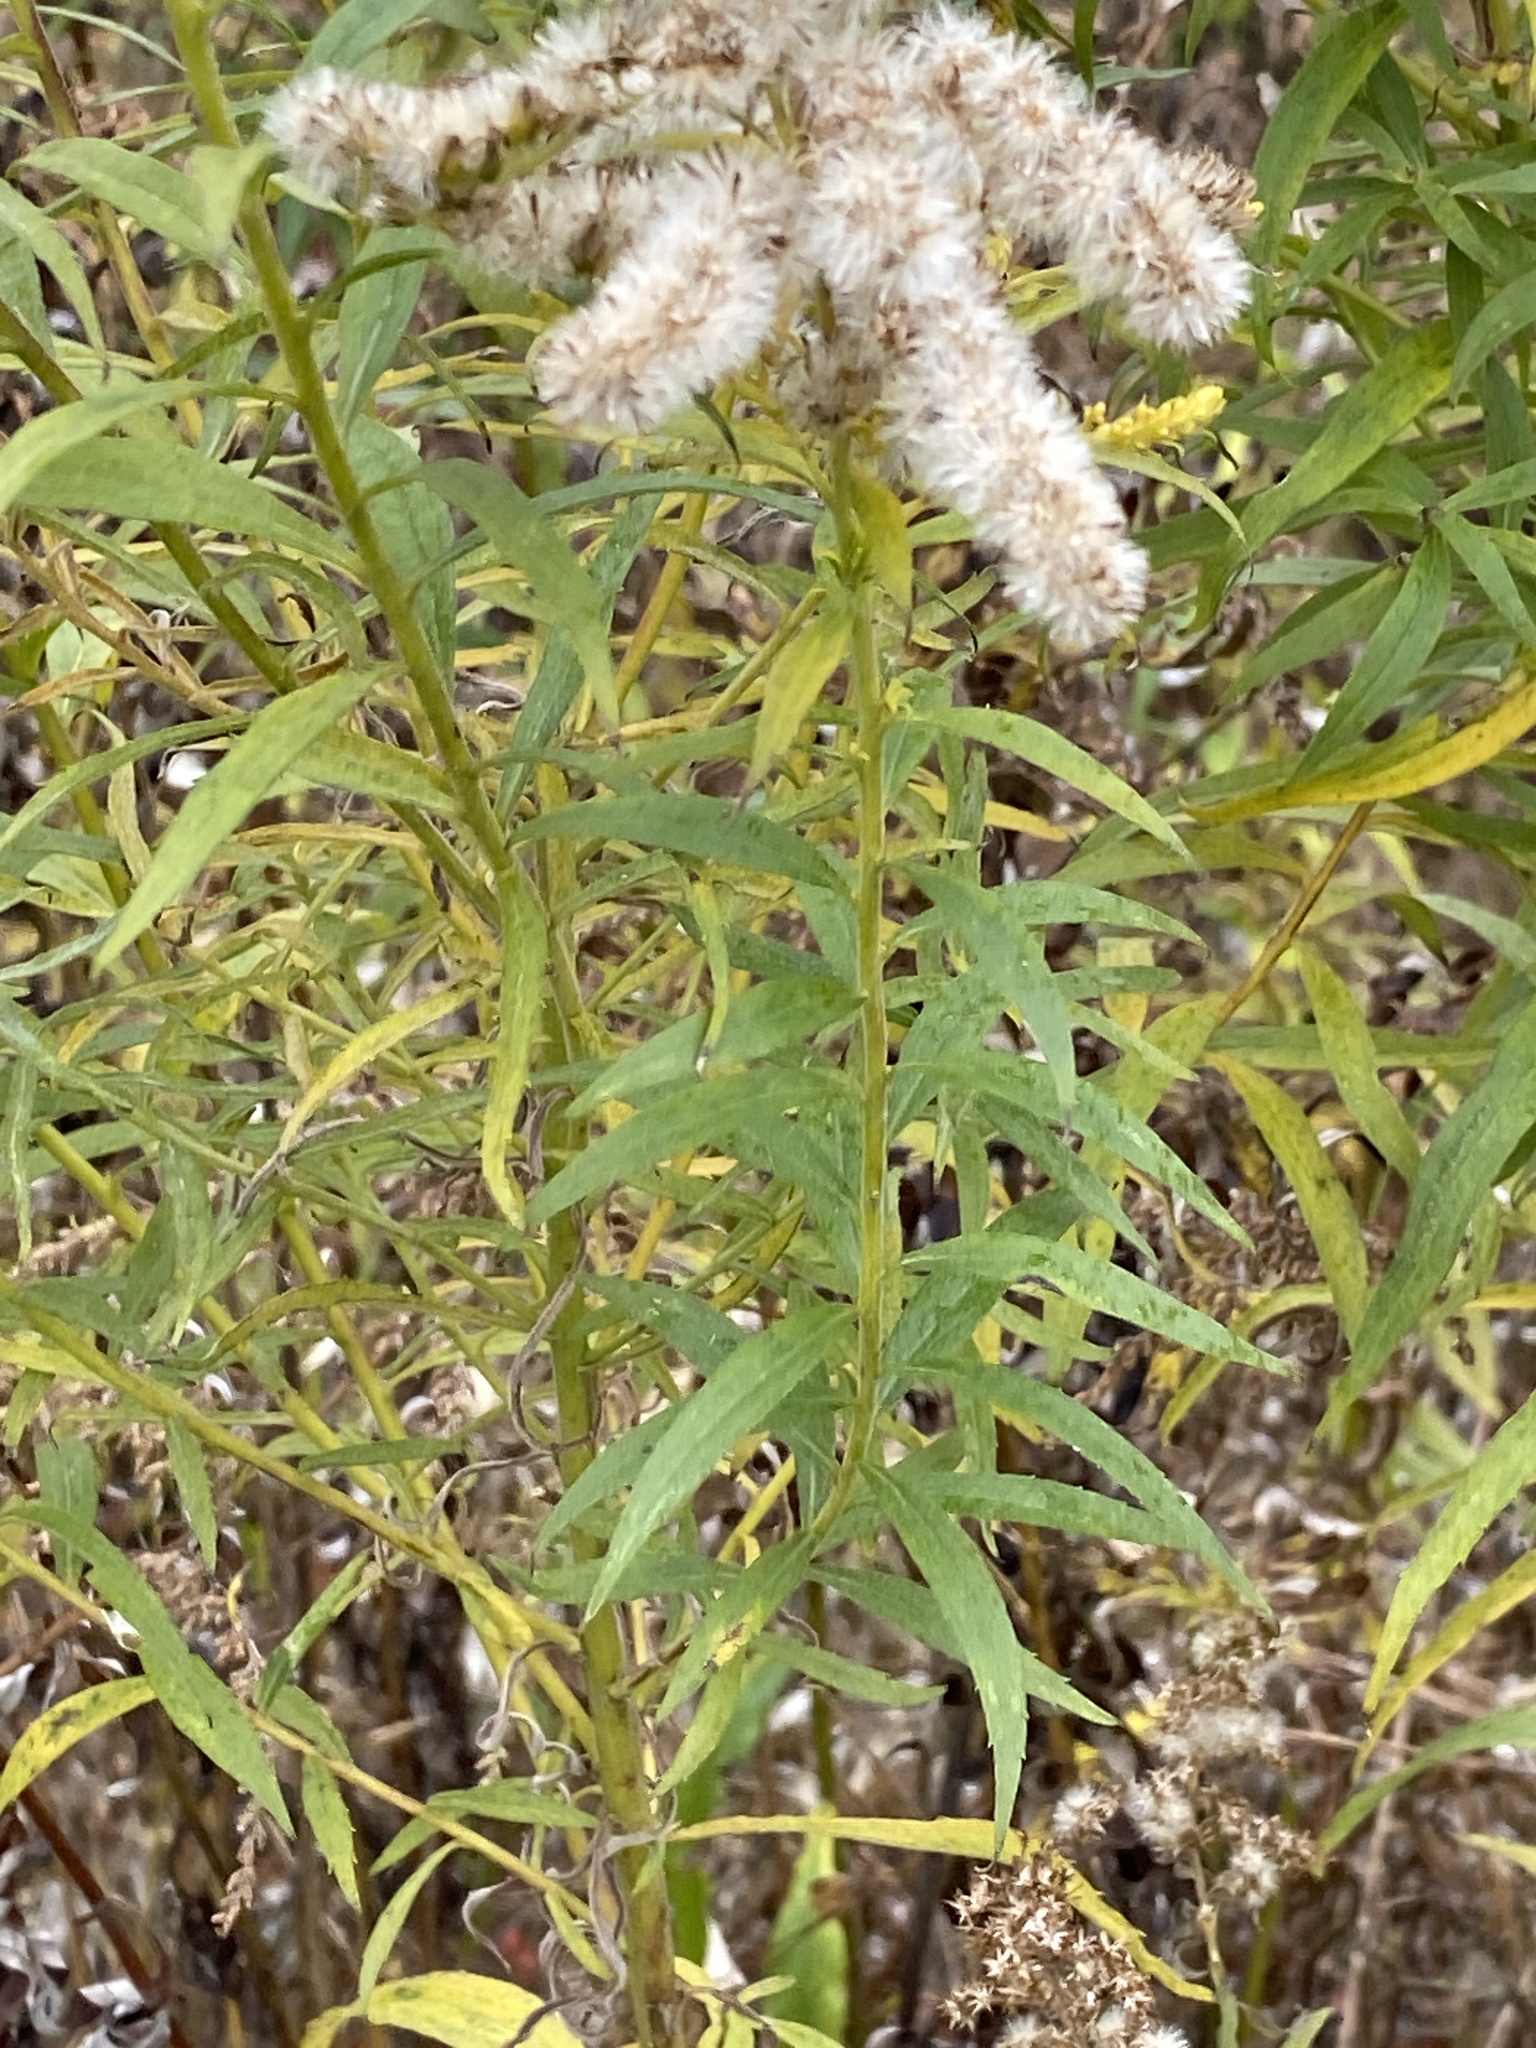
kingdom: Plantae
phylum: Tracheophyta
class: Magnoliopsida
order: Asterales
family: Asteraceae
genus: Solidago
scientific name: Solidago altissima
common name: Late goldenrod
